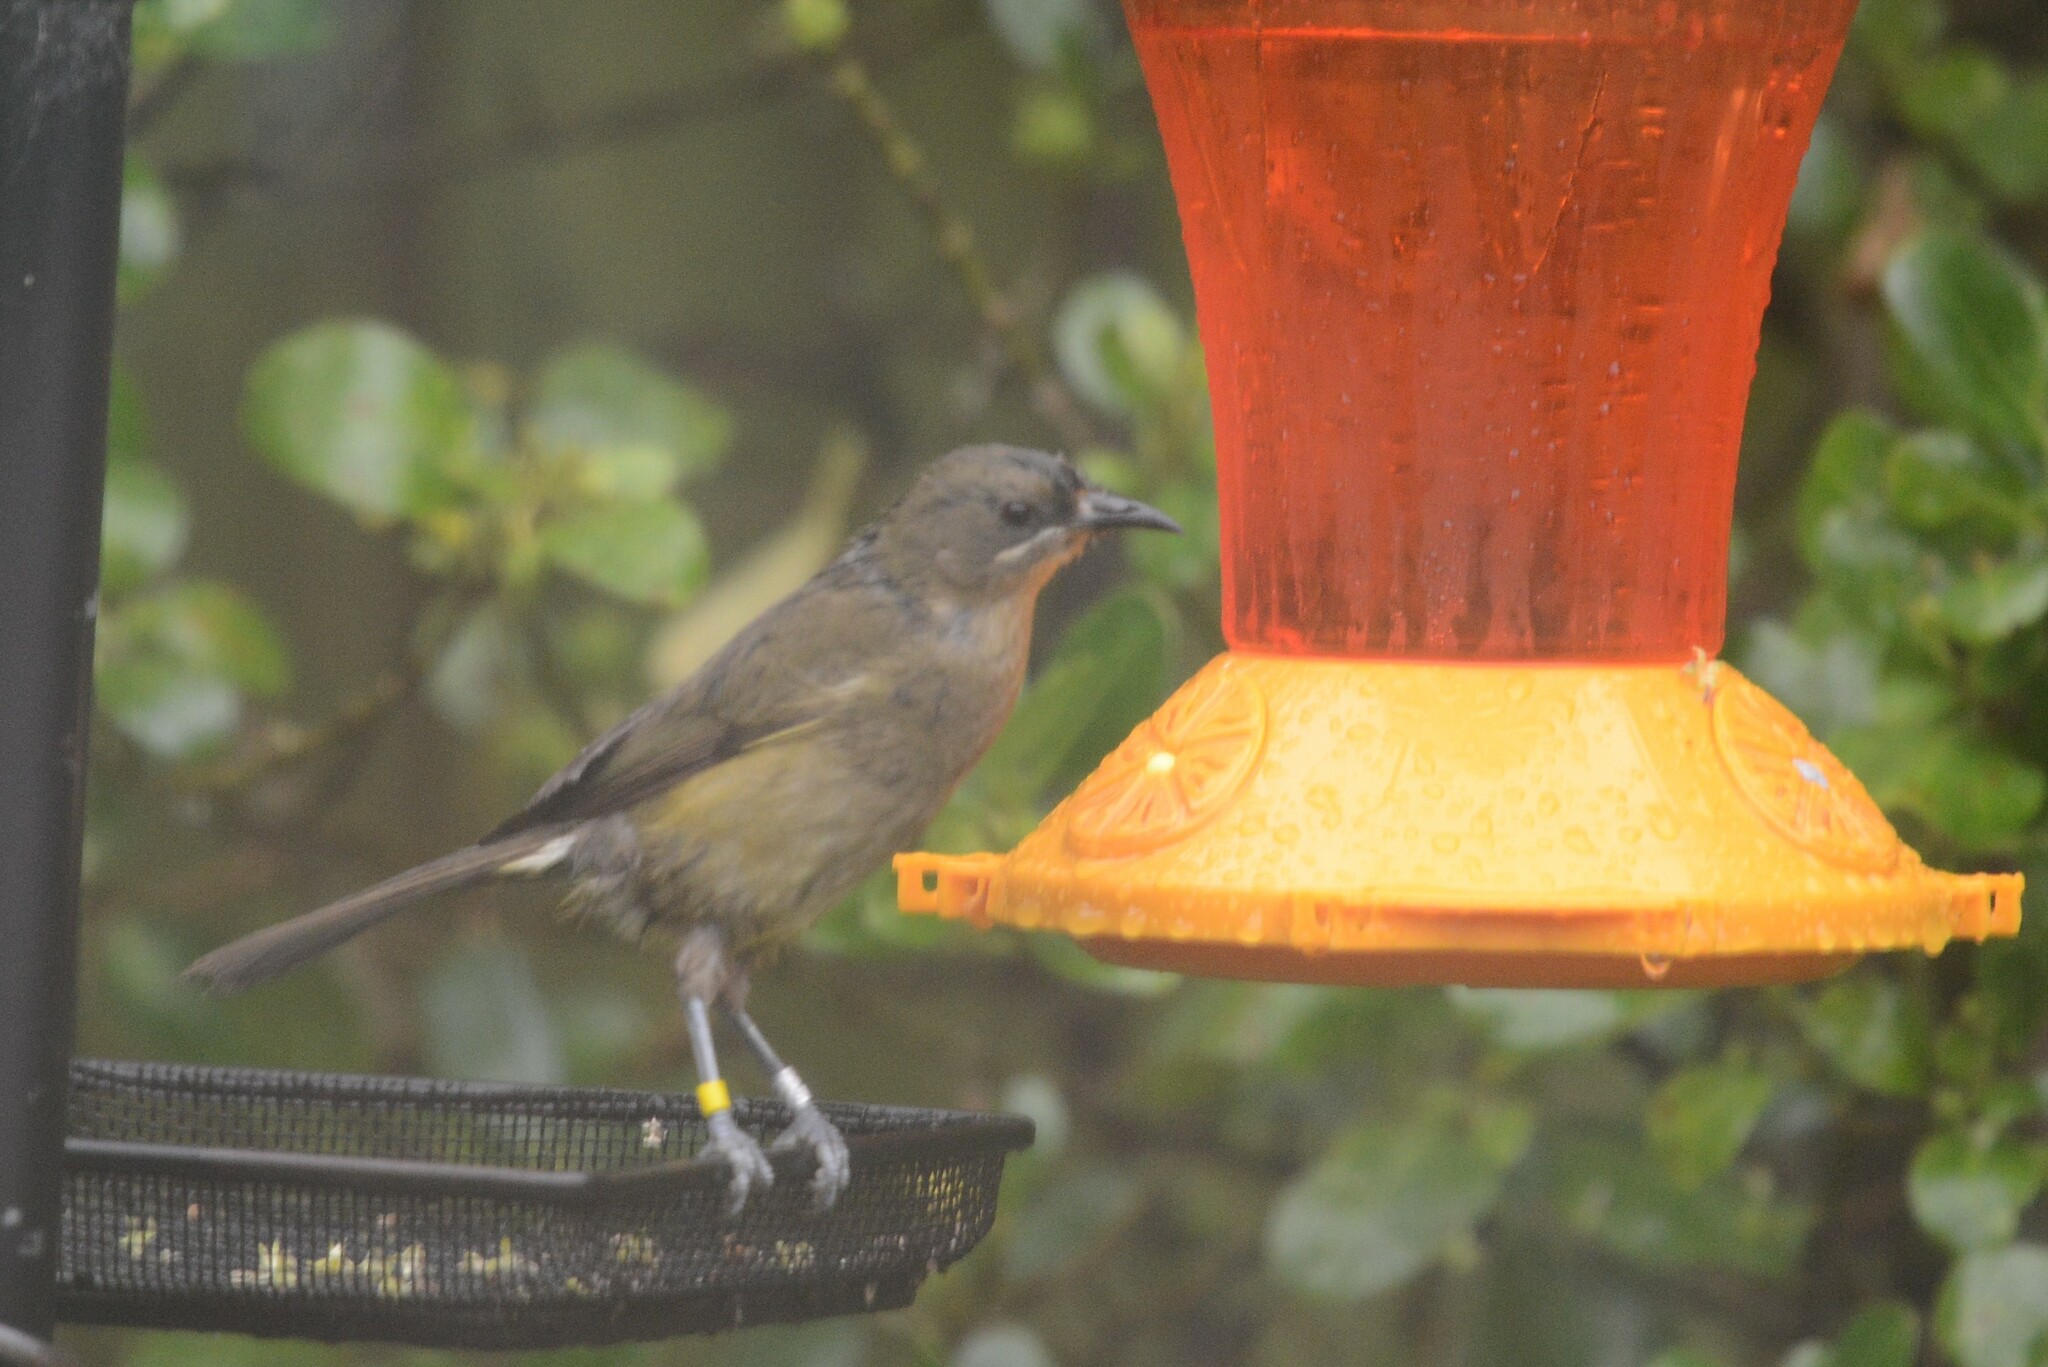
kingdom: Animalia
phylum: Chordata
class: Aves
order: Passeriformes
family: Meliphagidae
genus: Anthornis
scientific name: Anthornis melanura
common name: New zealand bellbird
